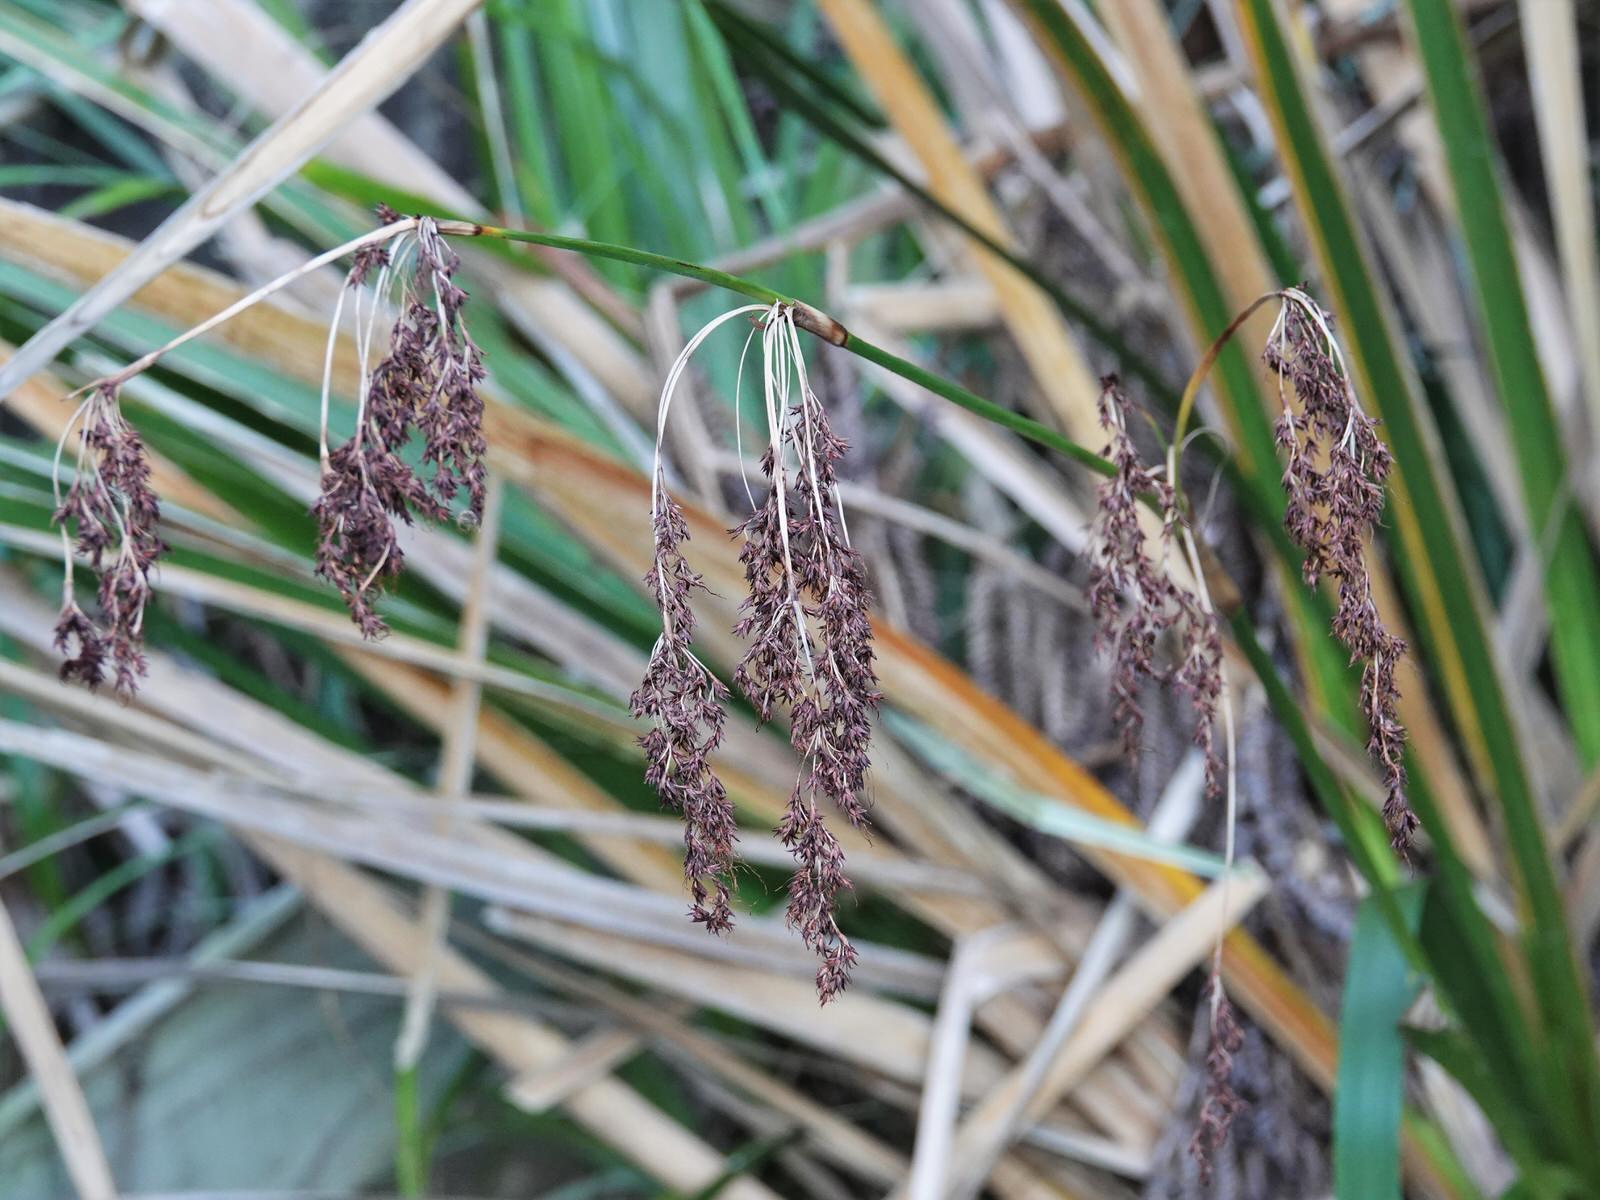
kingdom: Plantae
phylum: Tracheophyta
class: Liliopsida
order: Poales
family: Cyperaceae
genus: Machaerina
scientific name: Machaerina sinclairii
